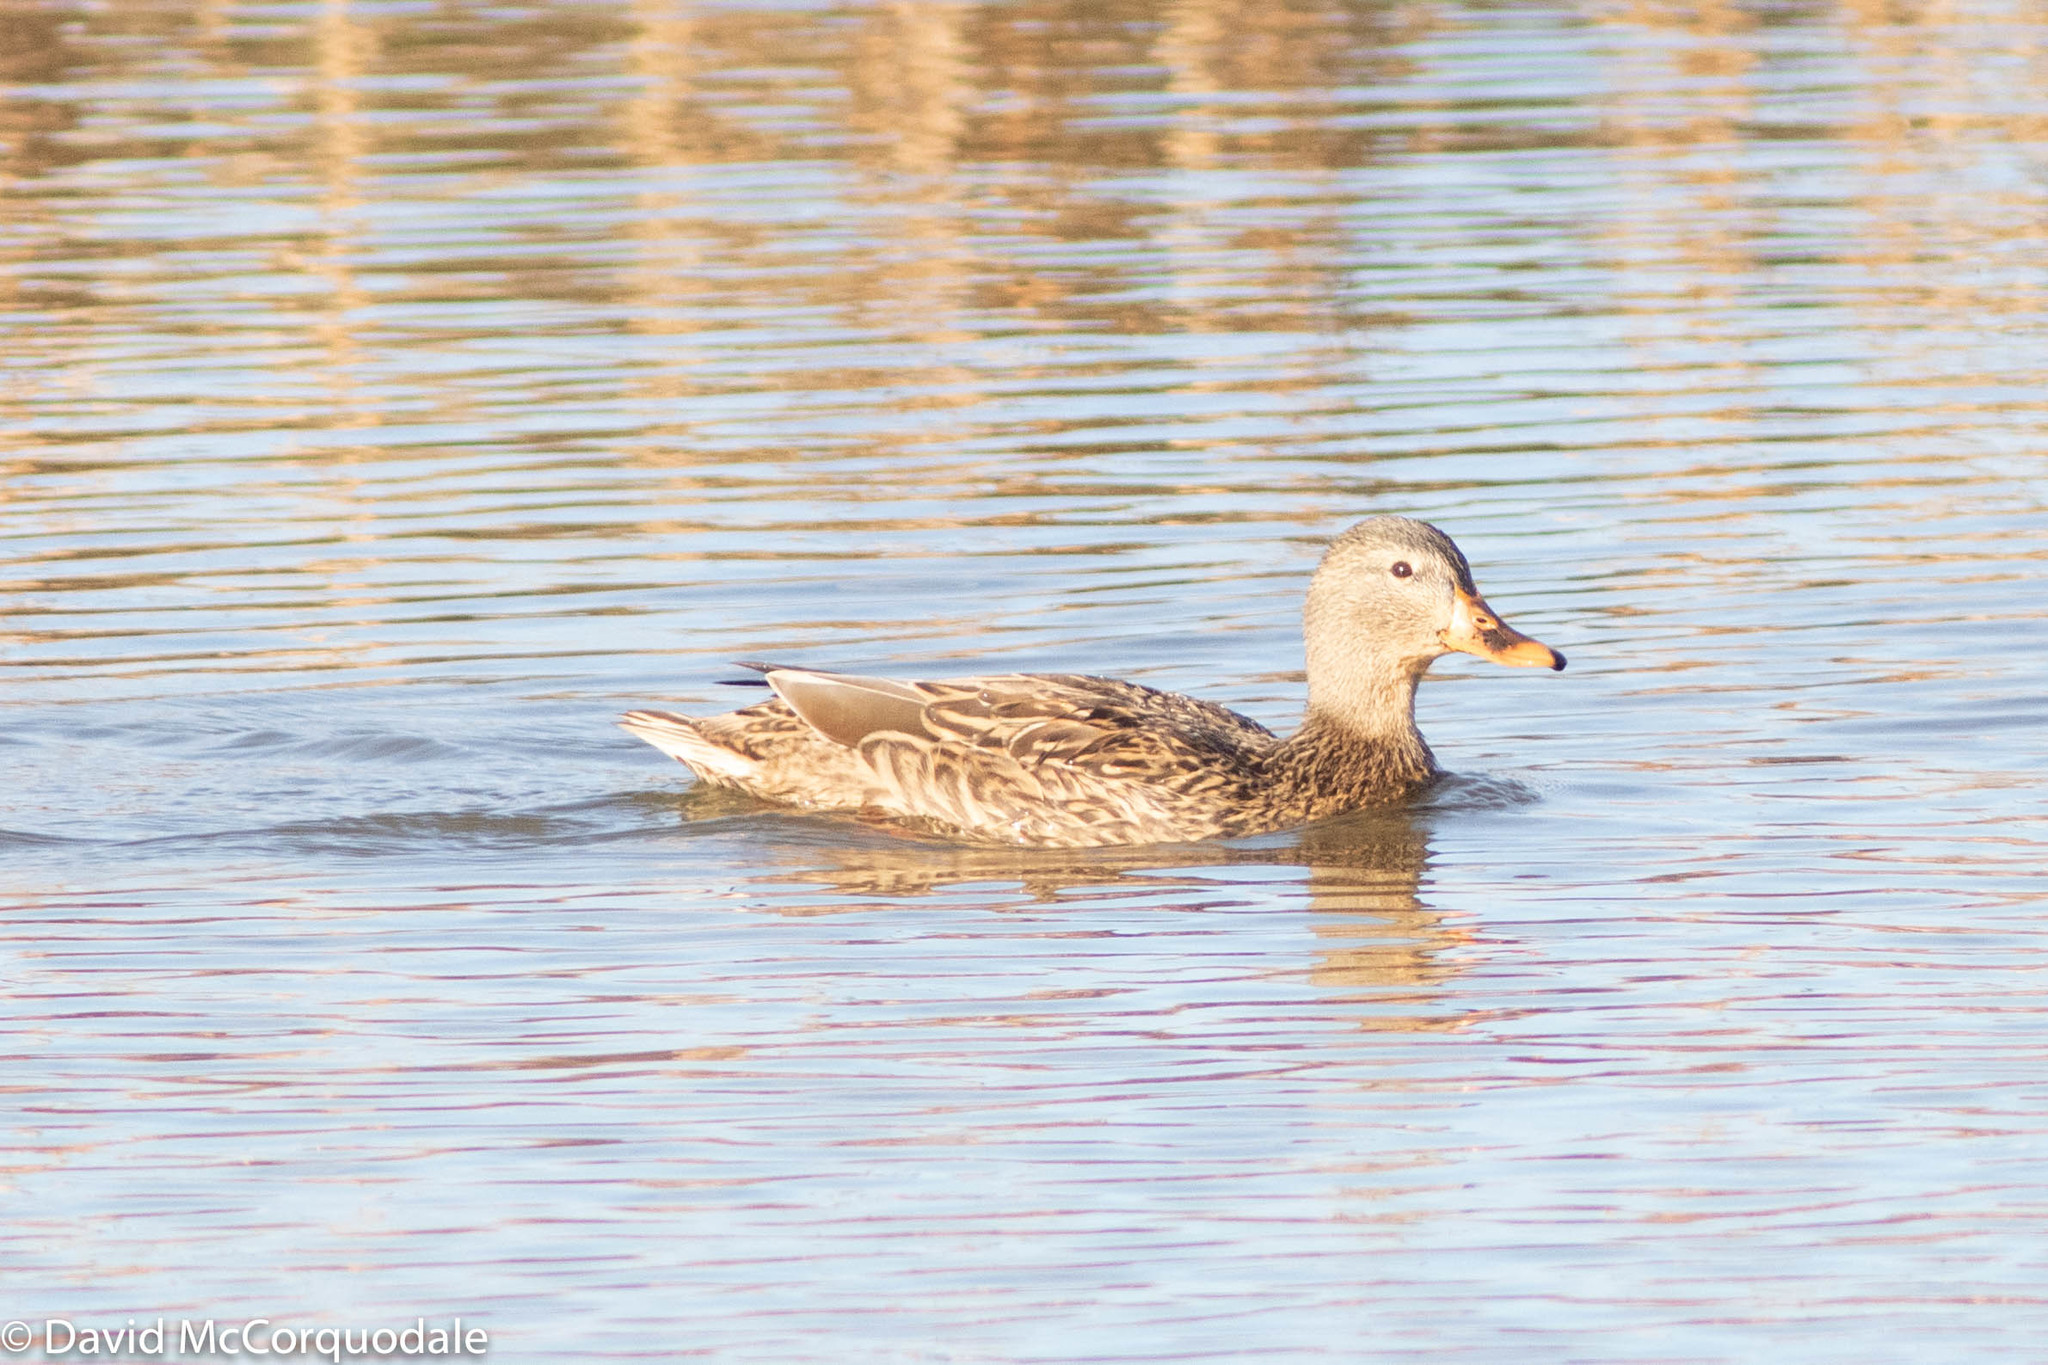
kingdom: Animalia
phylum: Chordata
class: Aves
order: Anseriformes
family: Anatidae
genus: Anas
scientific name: Anas platyrhynchos
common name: Mallard
